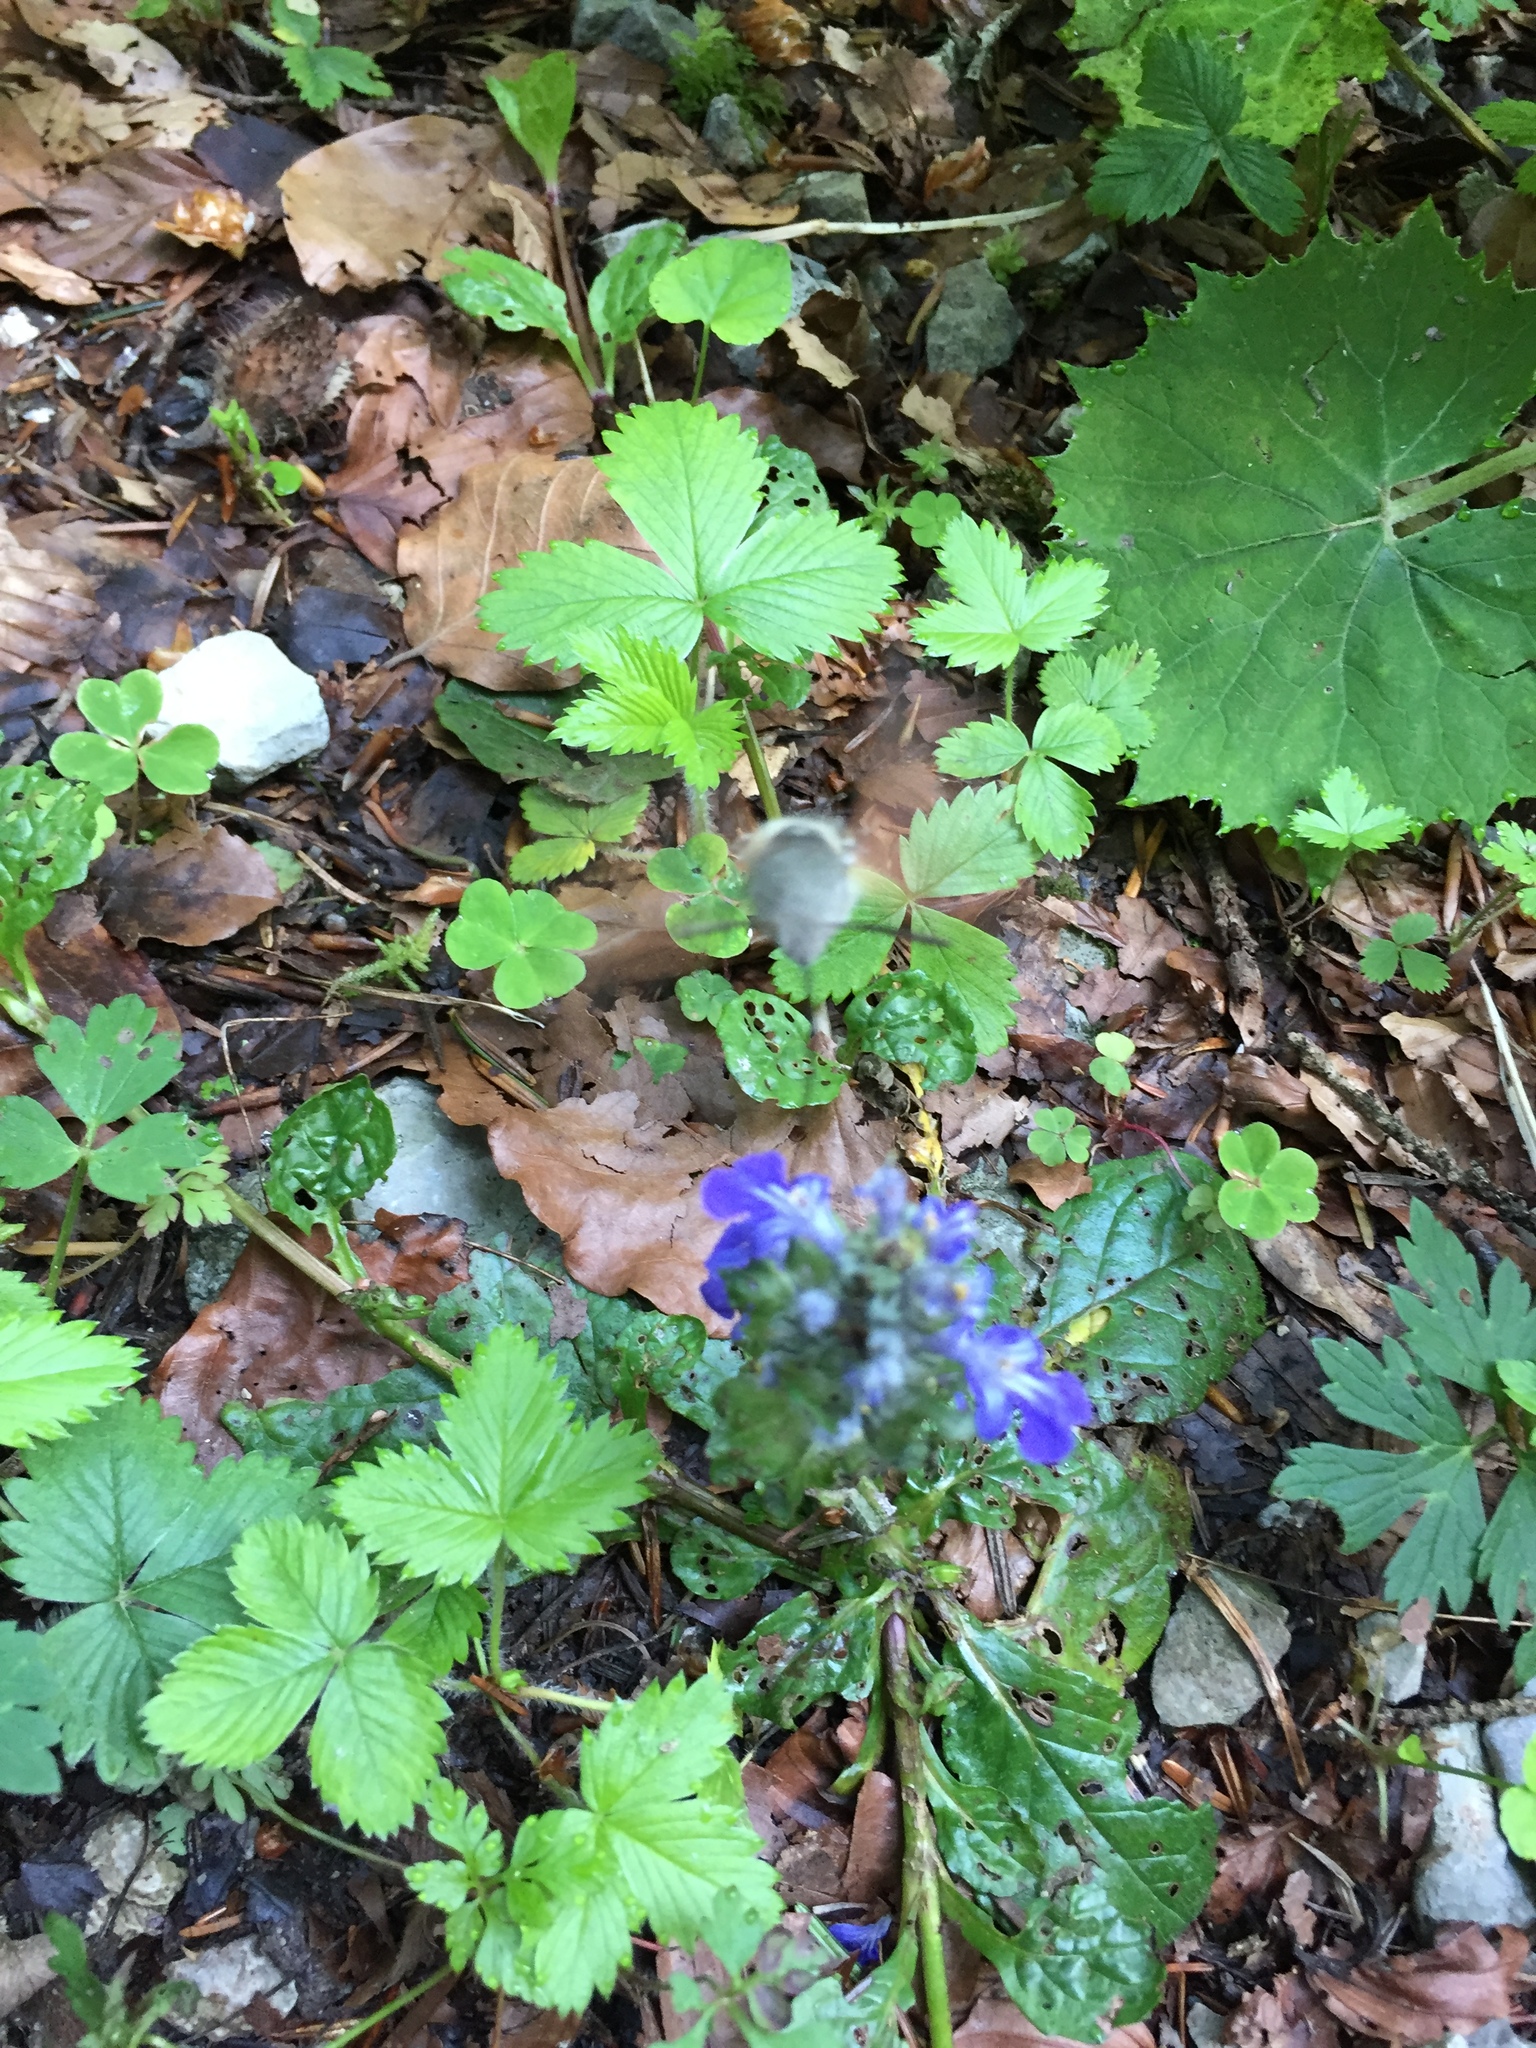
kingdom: Animalia
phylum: Arthropoda
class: Insecta
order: Lepidoptera
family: Sphingidae
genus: Macroglossum
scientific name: Macroglossum stellatarum
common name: Humming-bird hawk-moth
